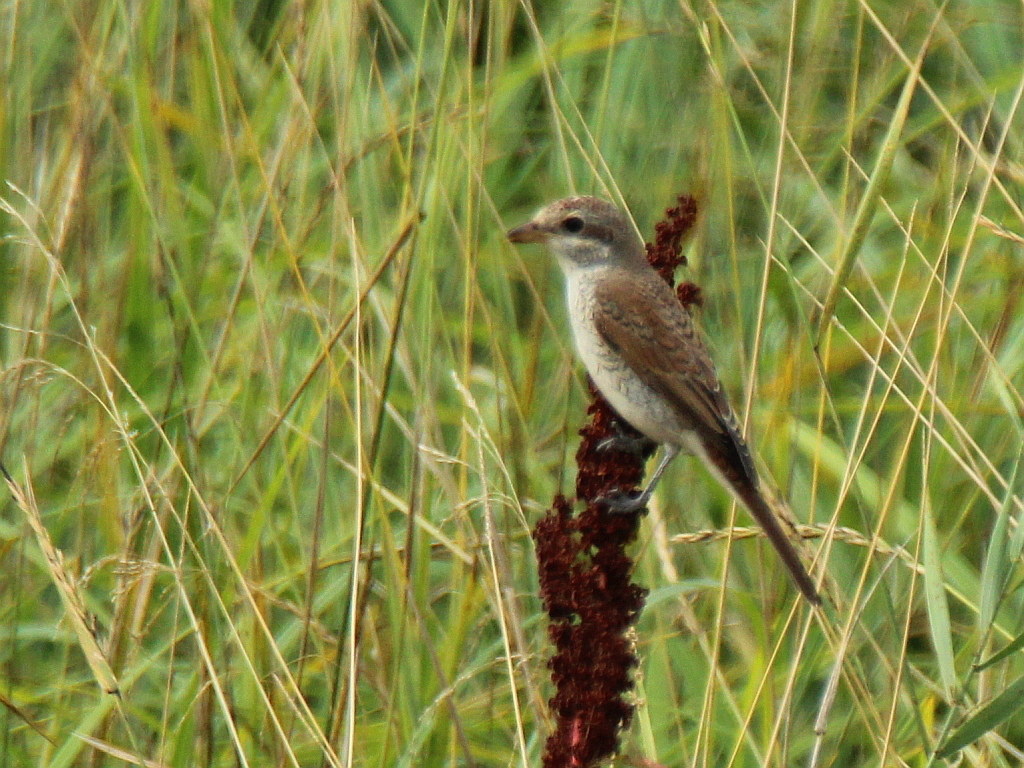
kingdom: Animalia
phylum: Chordata
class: Aves
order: Passeriformes
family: Laniidae
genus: Lanius
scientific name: Lanius collurio
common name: Red-backed shrike
